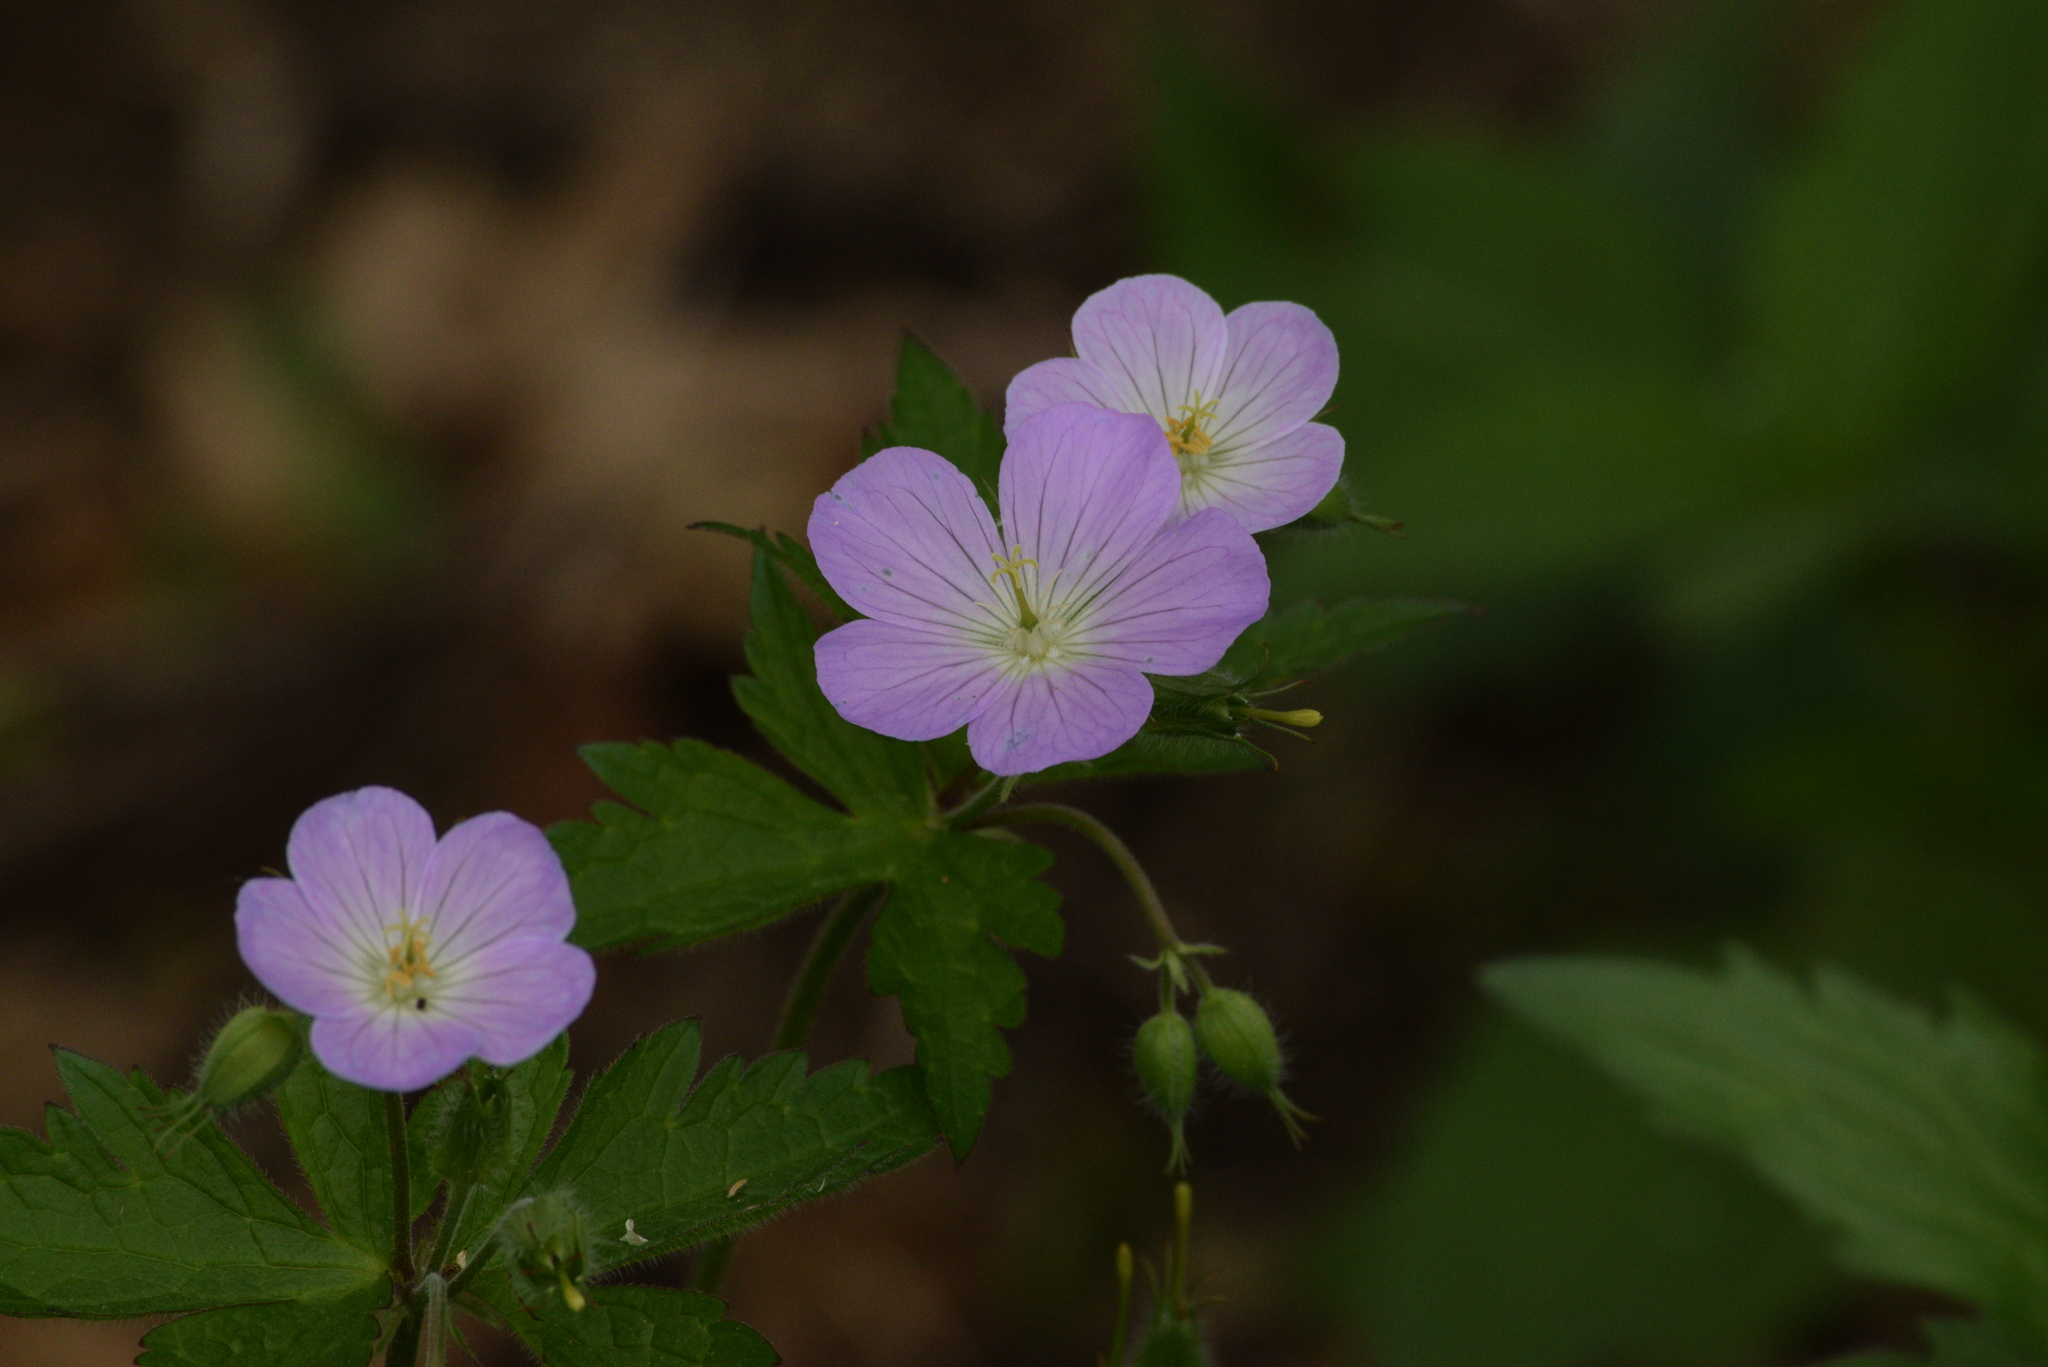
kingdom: Plantae
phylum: Tracheophyta
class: Magnoliopsida
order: Geraniales
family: Geraniaceae
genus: Geranium
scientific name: Geranium maculatum
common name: Spotted geranium
